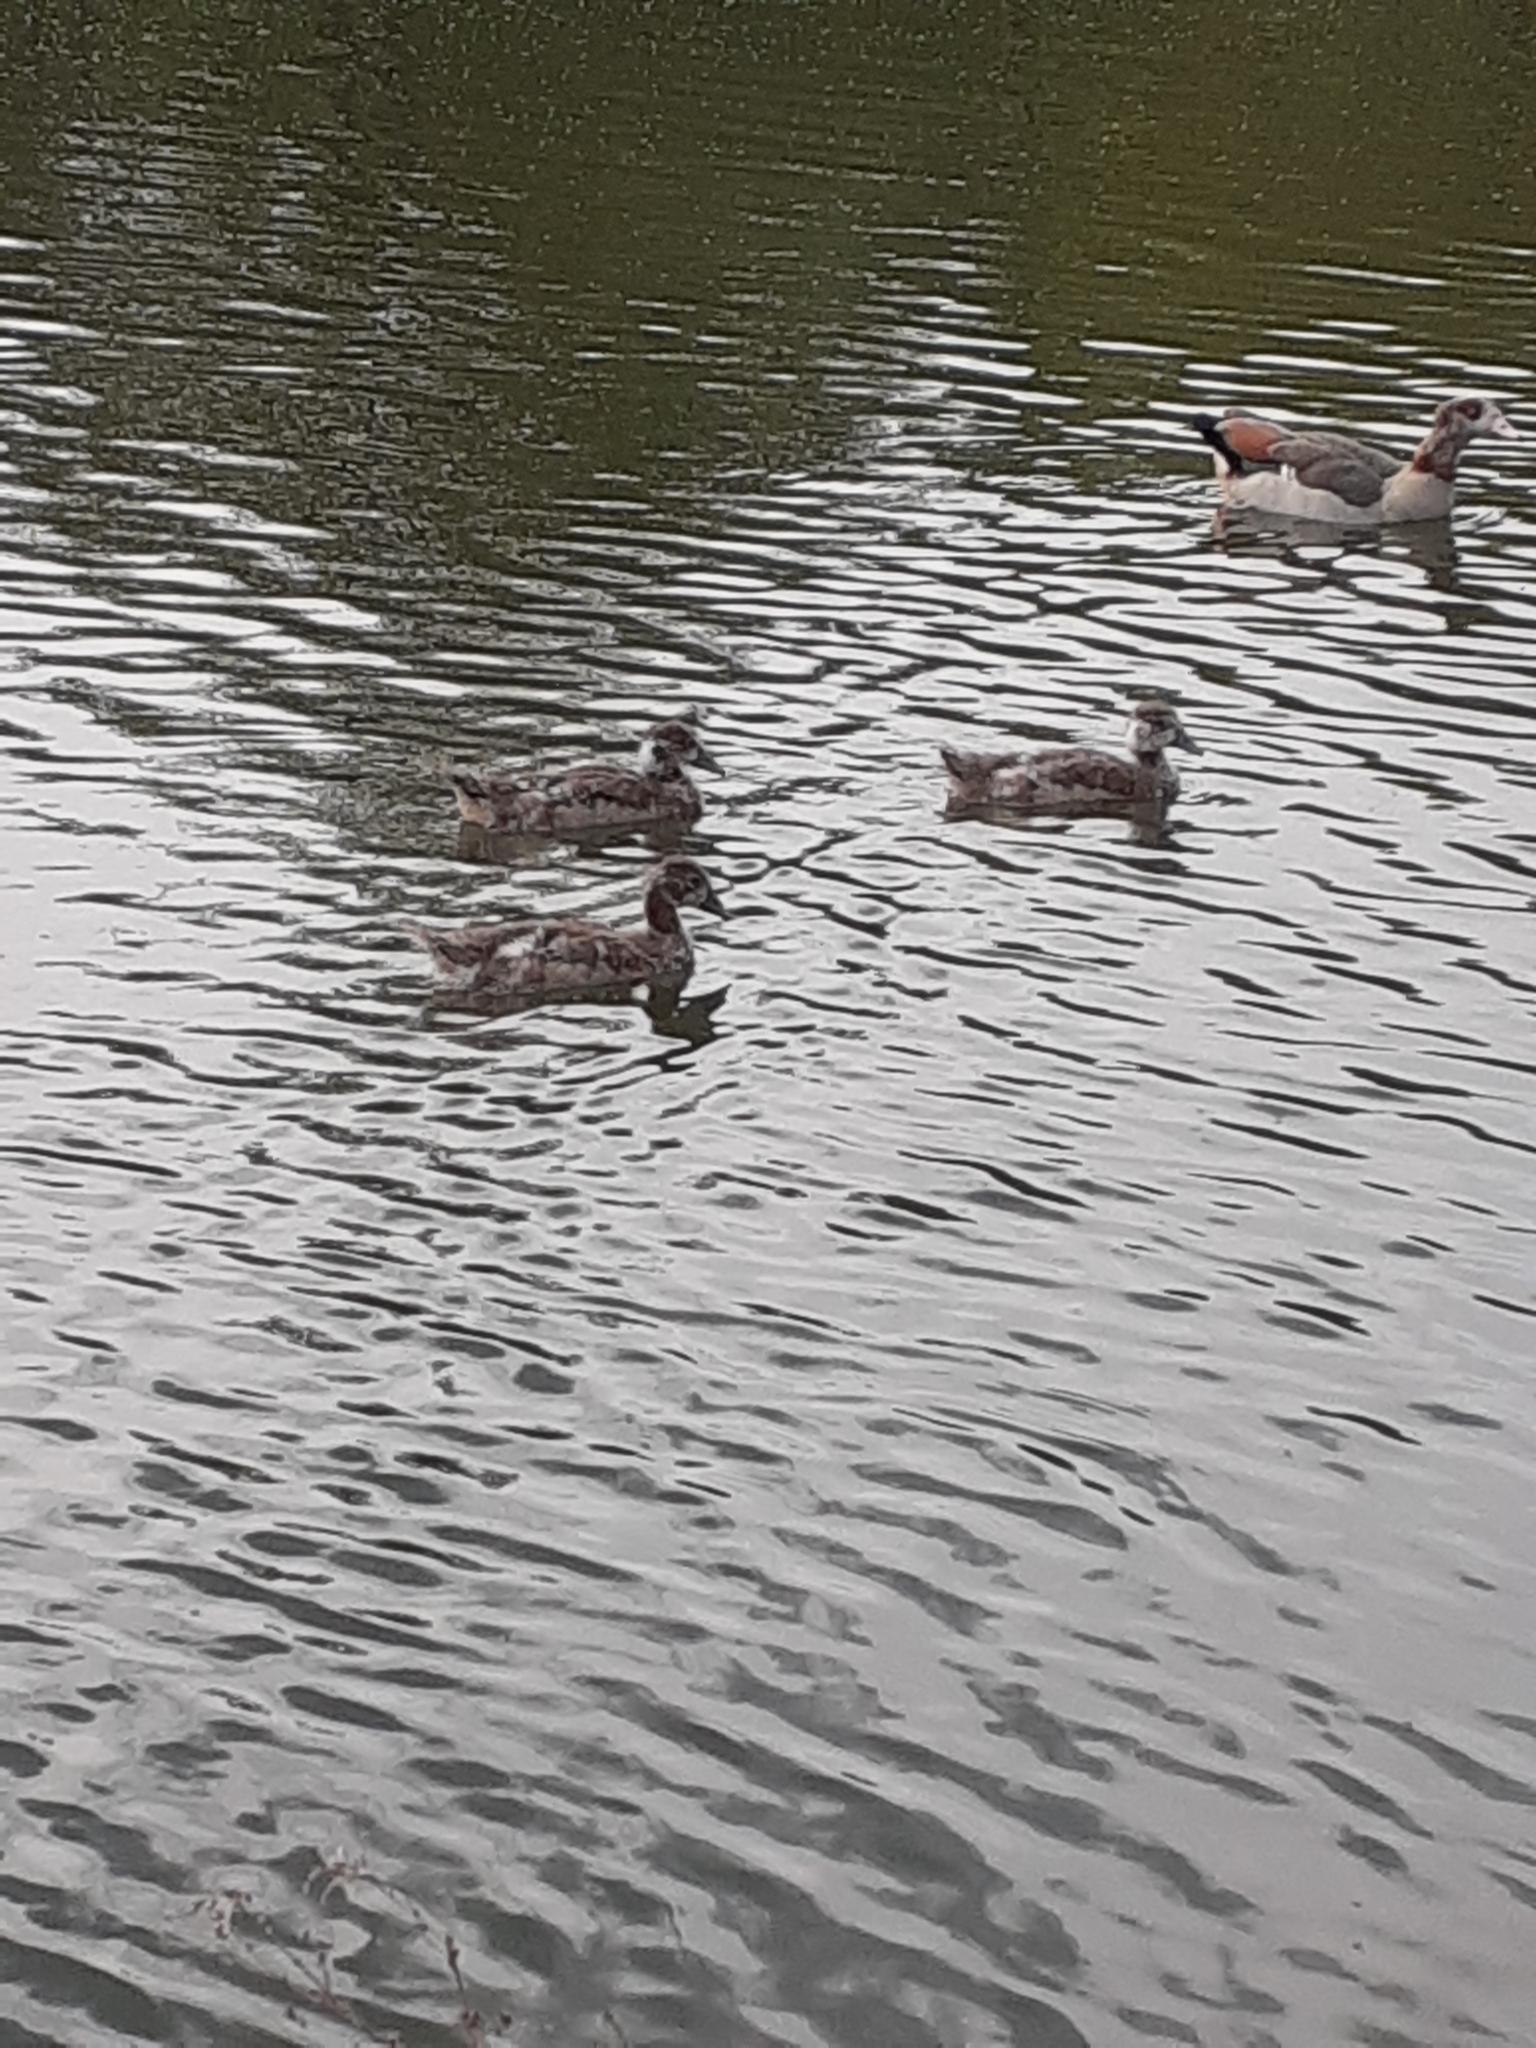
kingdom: Animalia
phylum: Chordata
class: Aves
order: Anseriformes
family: Anatidae
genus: Alopochen
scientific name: Alopochen aegyptiaca
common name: Egyptian goose
